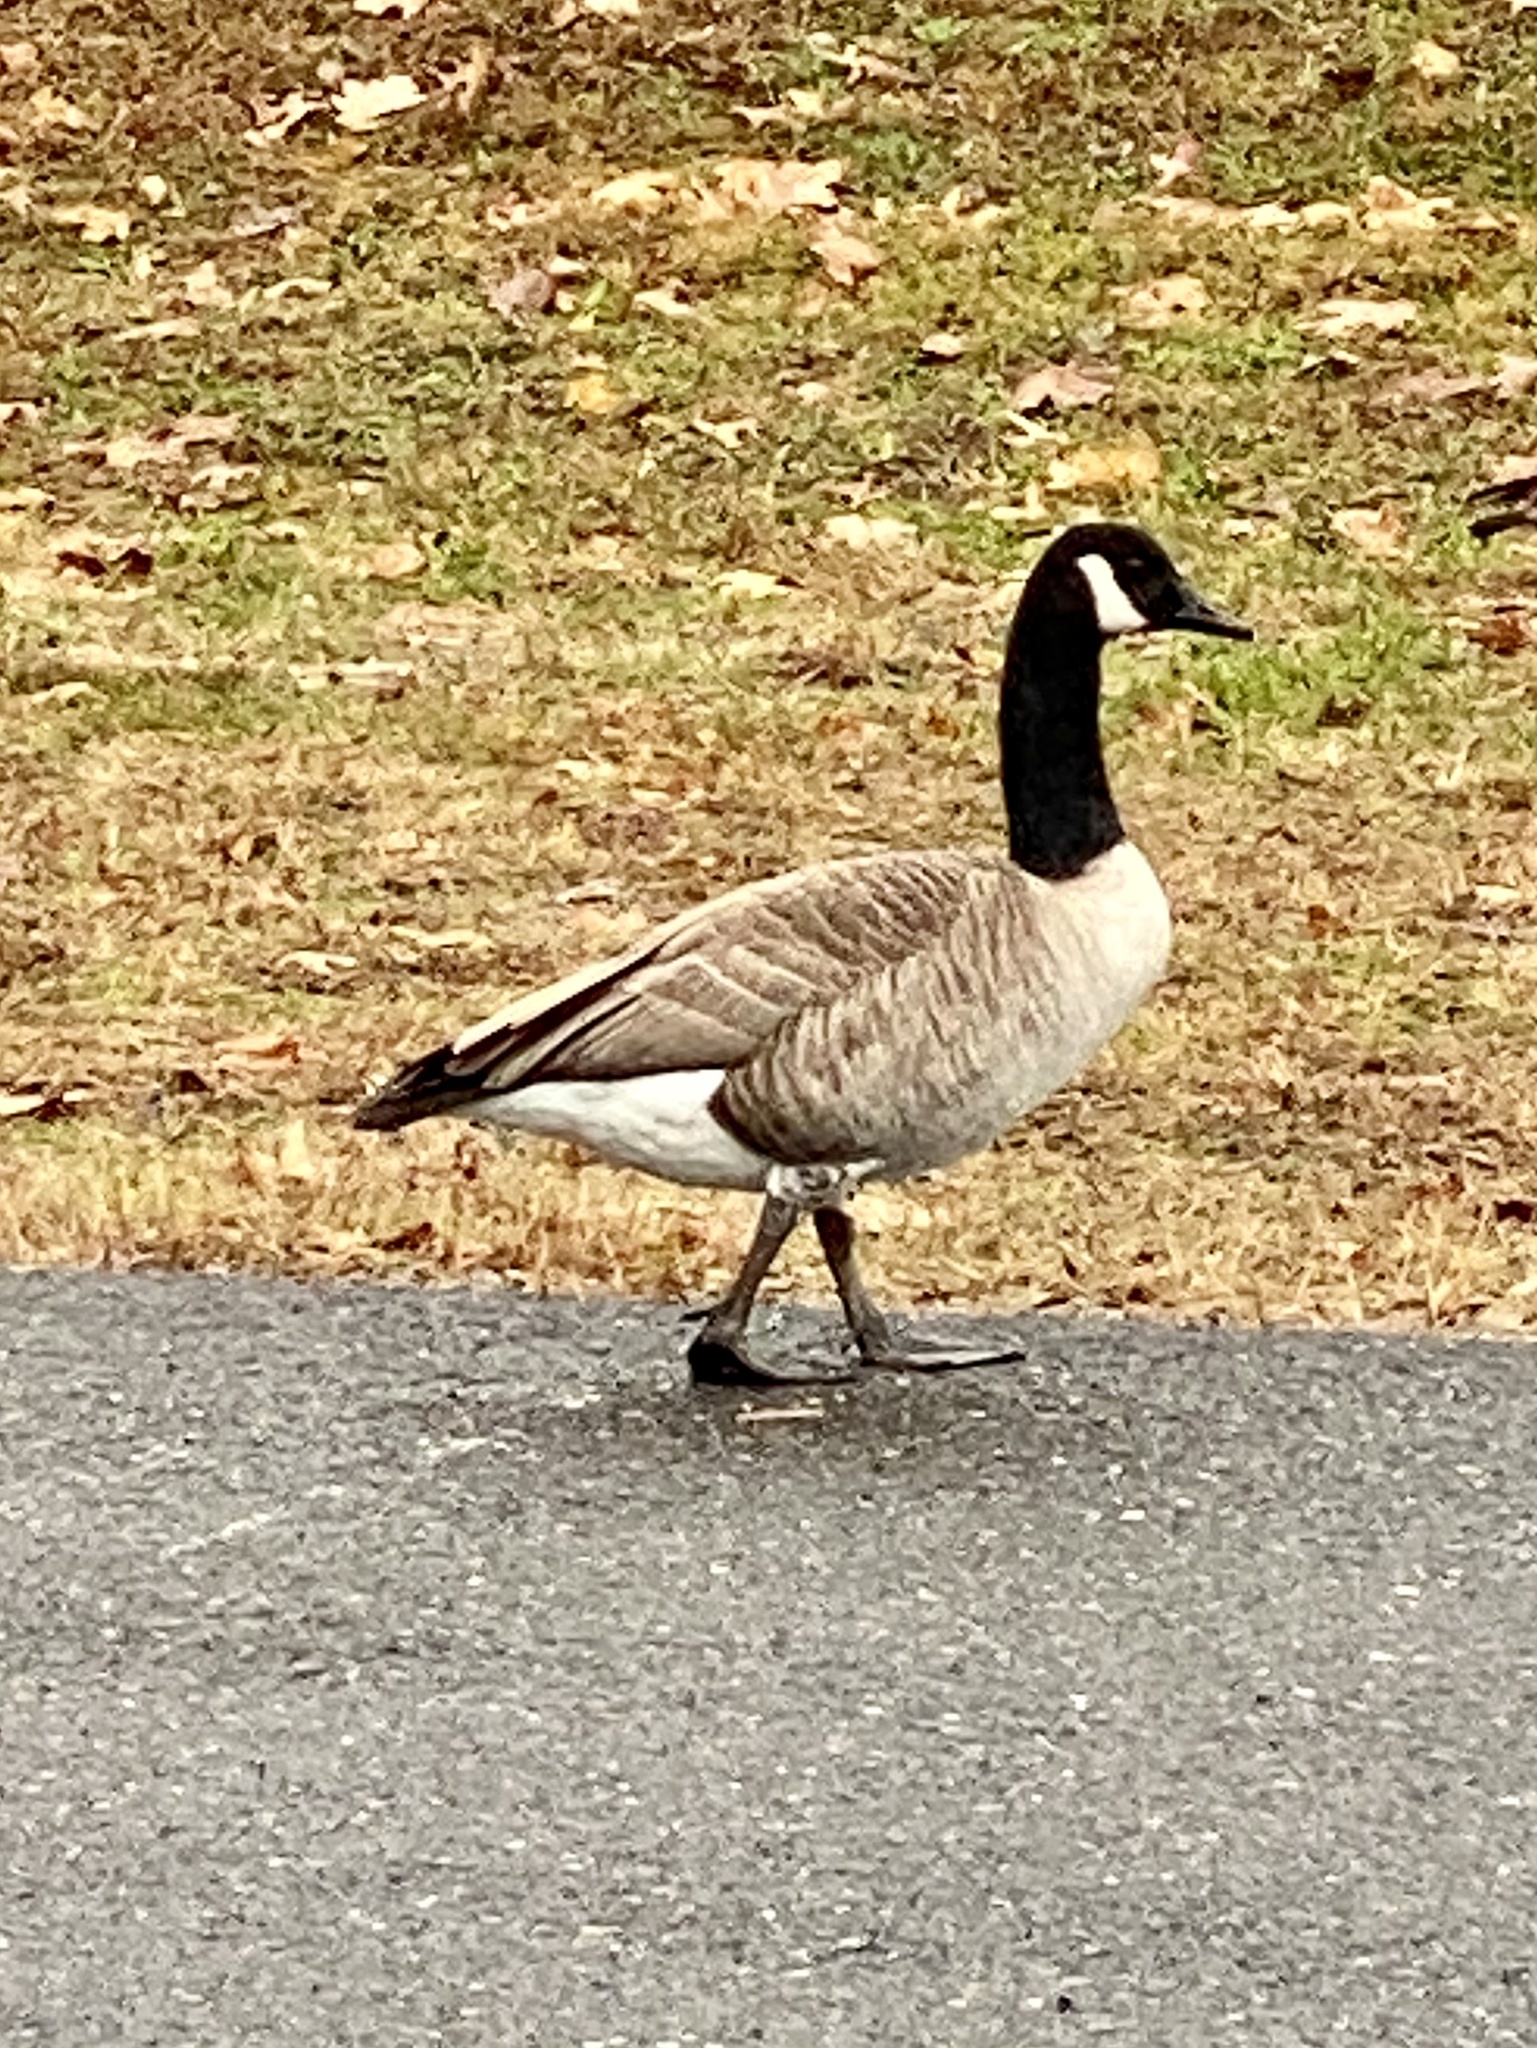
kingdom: Animalia
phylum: Chordata
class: Aves
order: Anseriformes
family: Anatidae
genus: Branta
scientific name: Branta canadensis
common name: Canada goose
